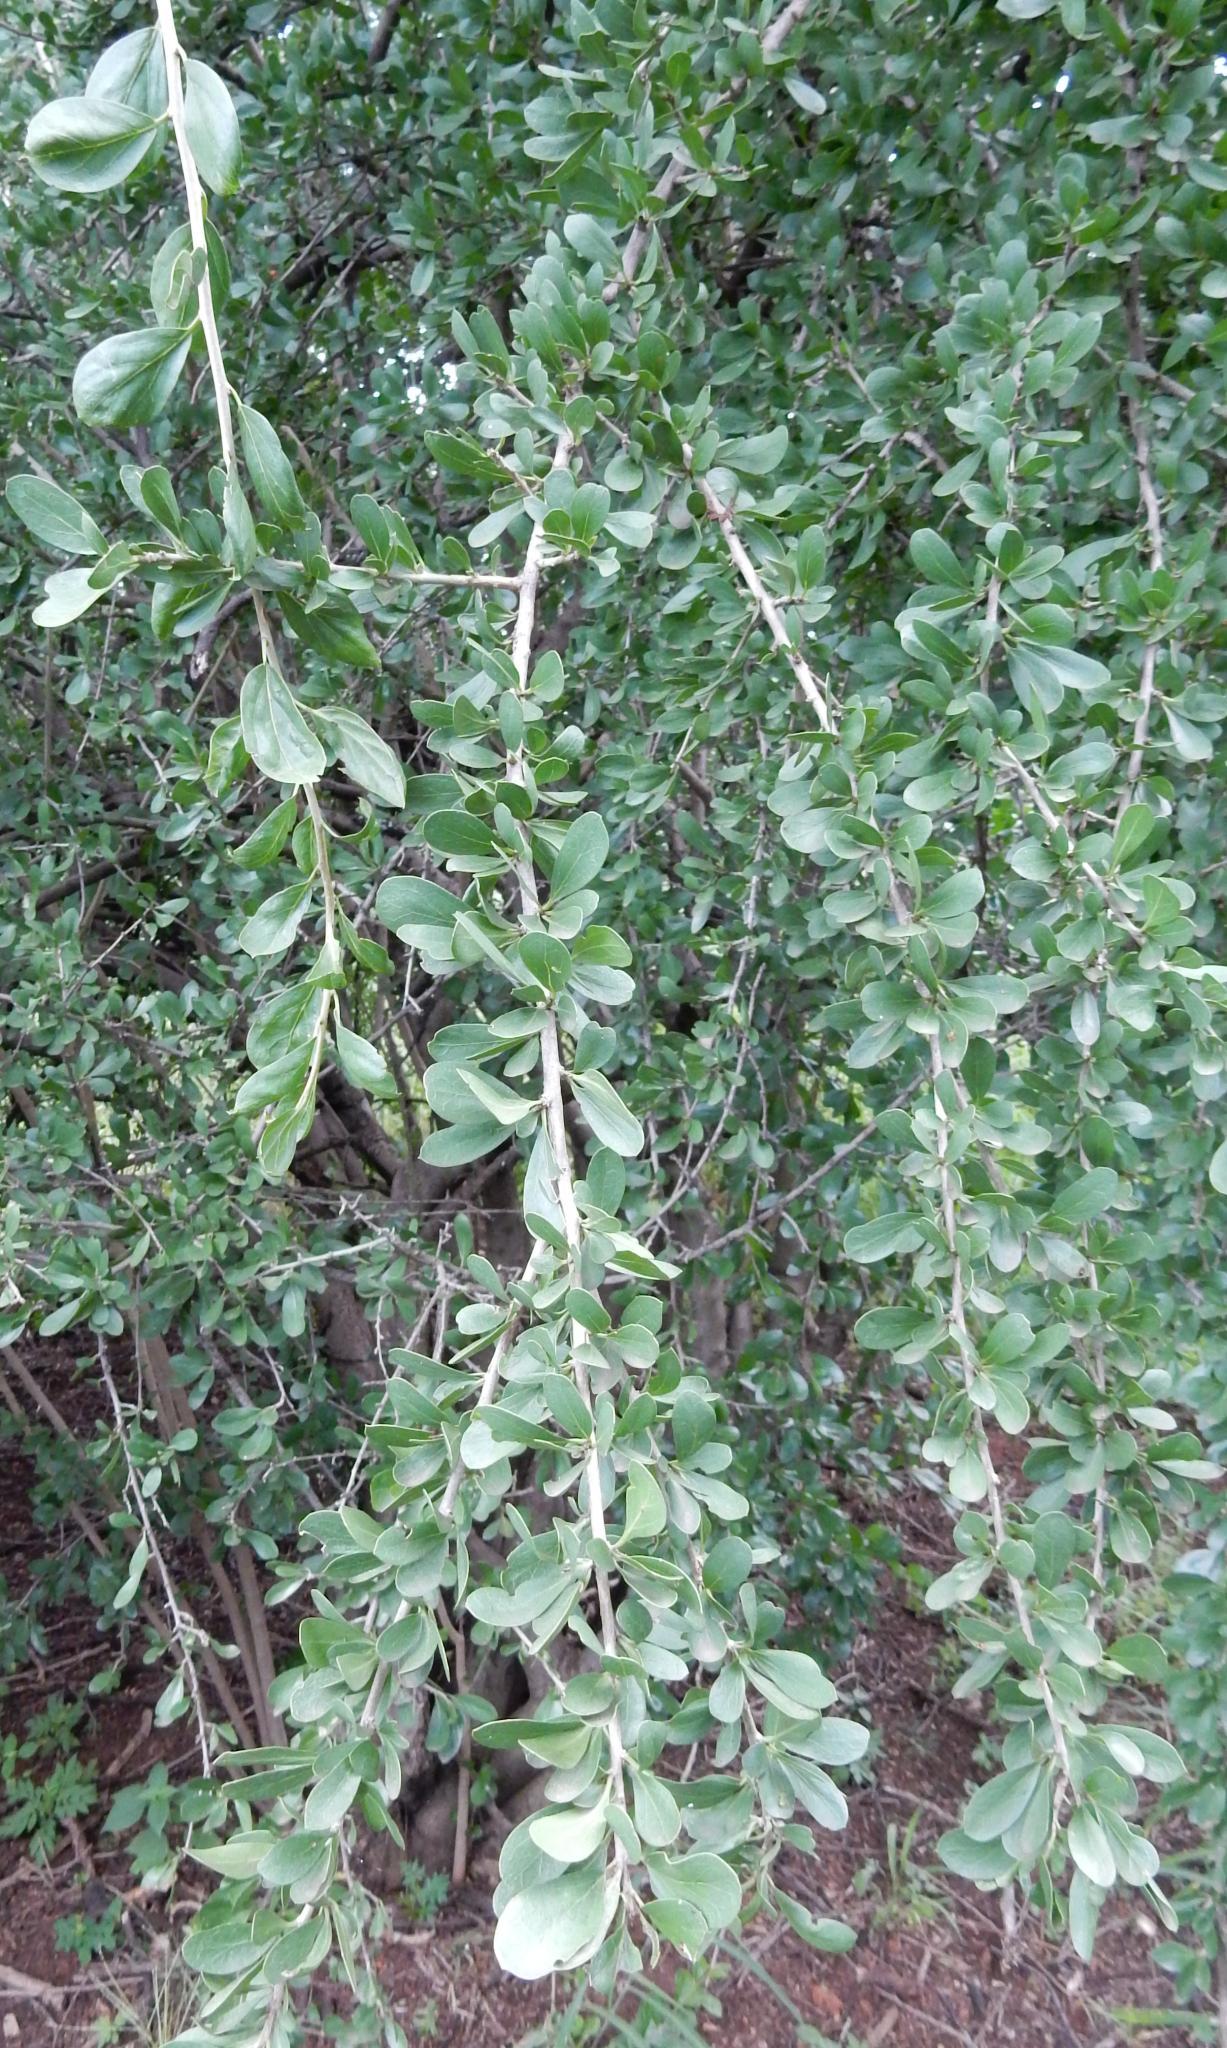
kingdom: Plantae
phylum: Tracheophyta
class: Magnoliopsida
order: Boraginales
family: Ehretiaceae
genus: Ehretia
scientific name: Ehretia rigida
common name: Cape lilac
